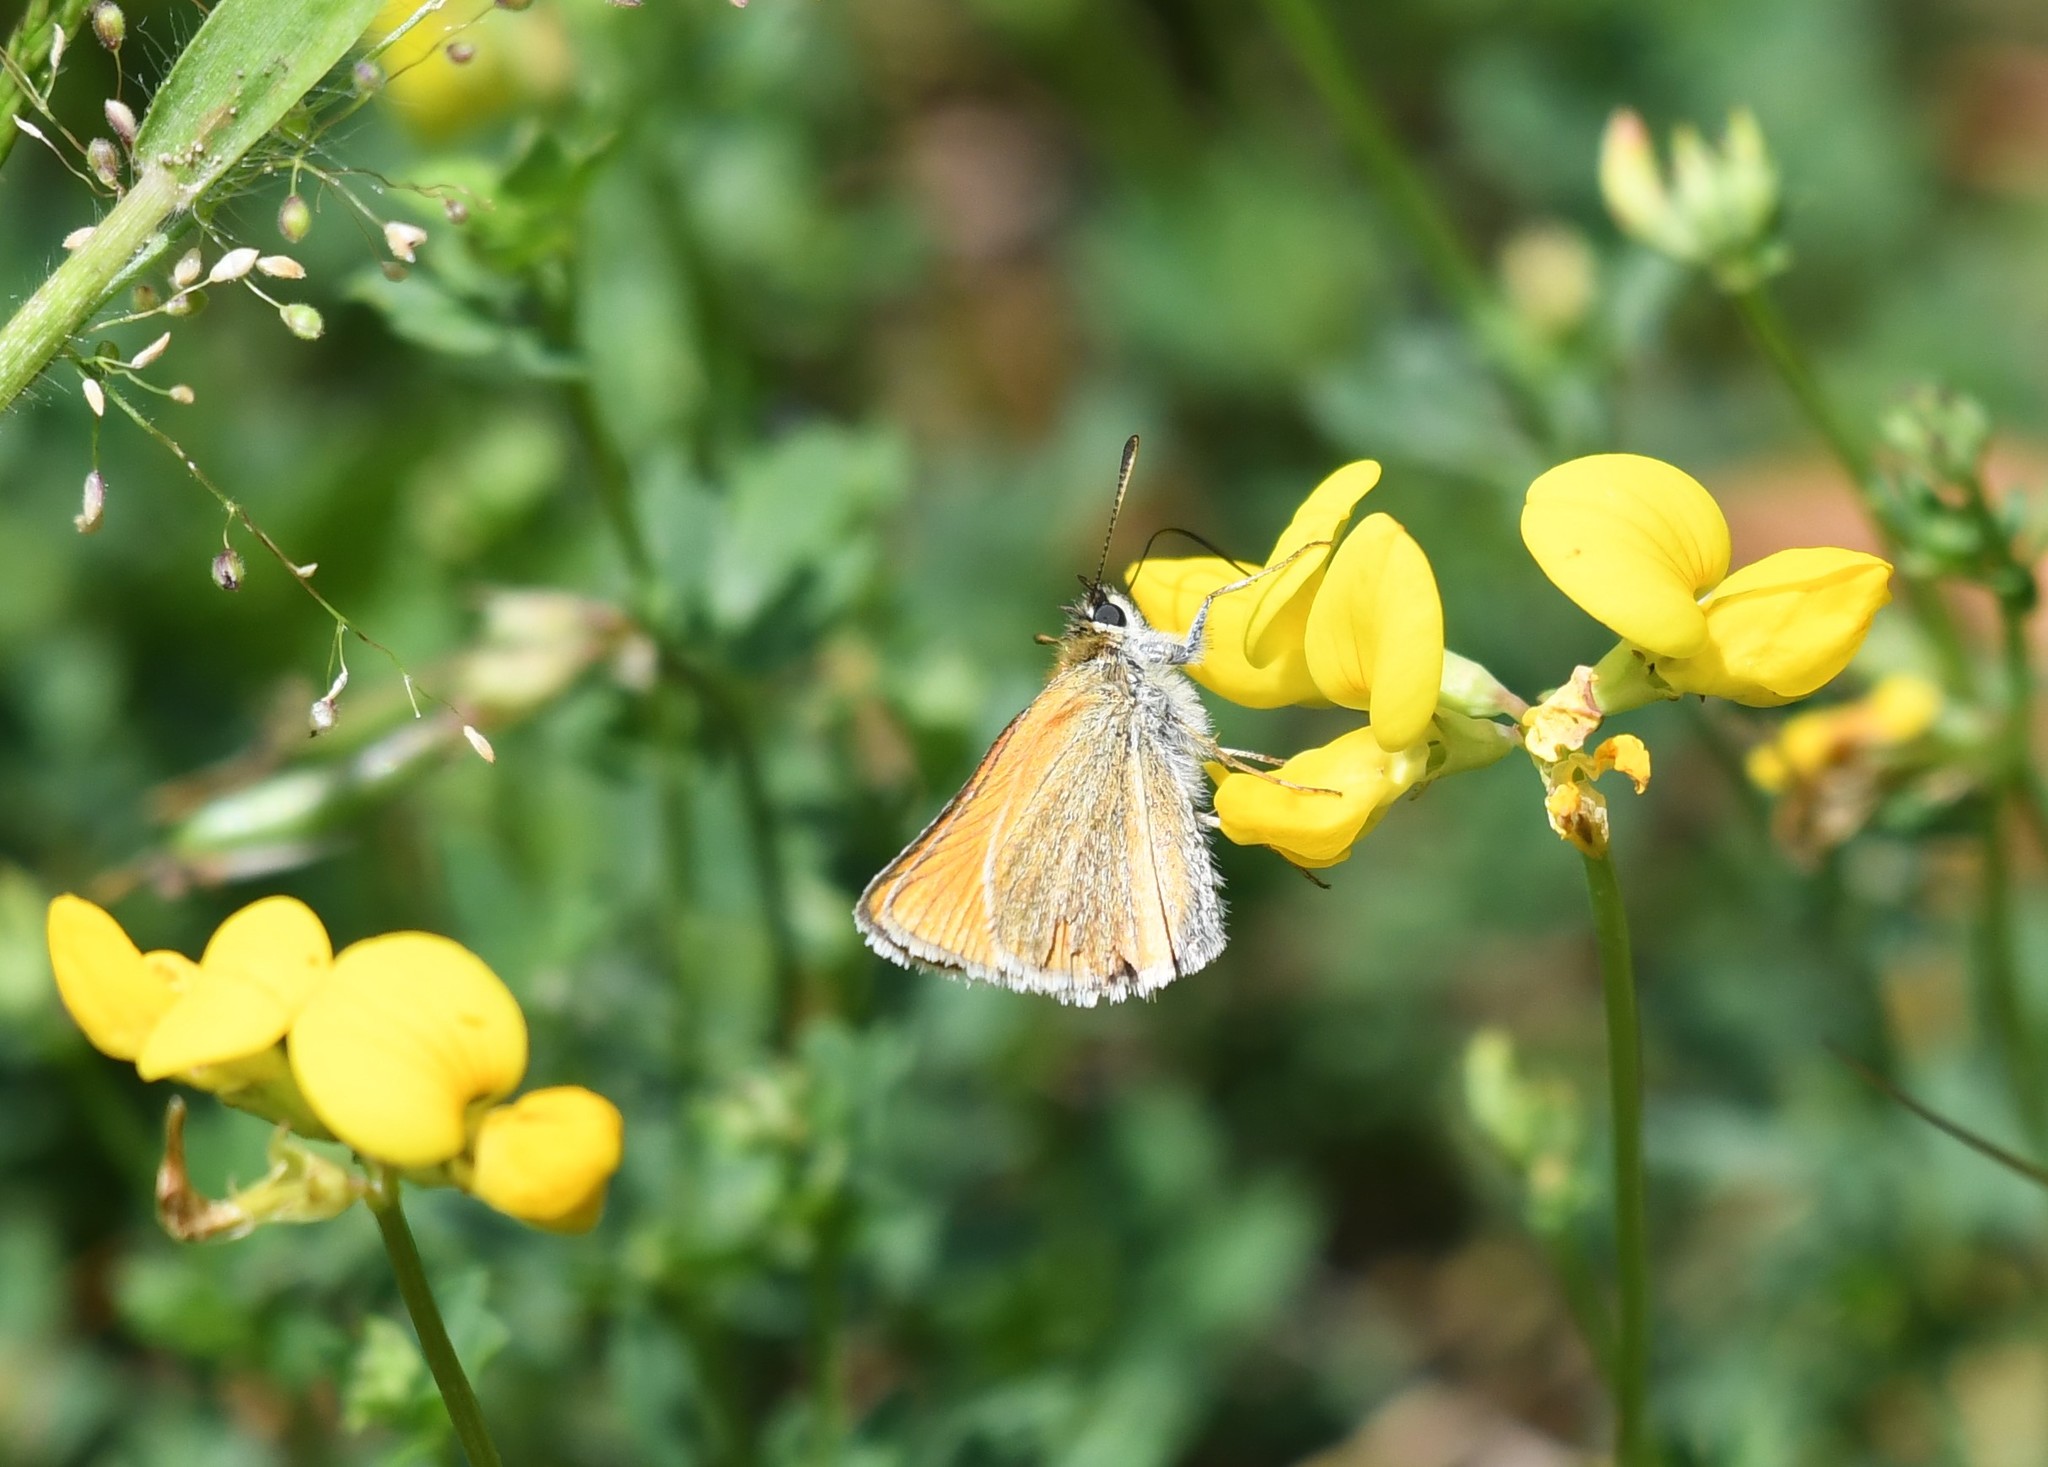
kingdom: Animalia
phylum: Arthropoda
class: Insecta
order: Lepidoptera
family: Hesperiidae
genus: Thymelicus
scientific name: Thymelicus lineola
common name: Essex skipper
